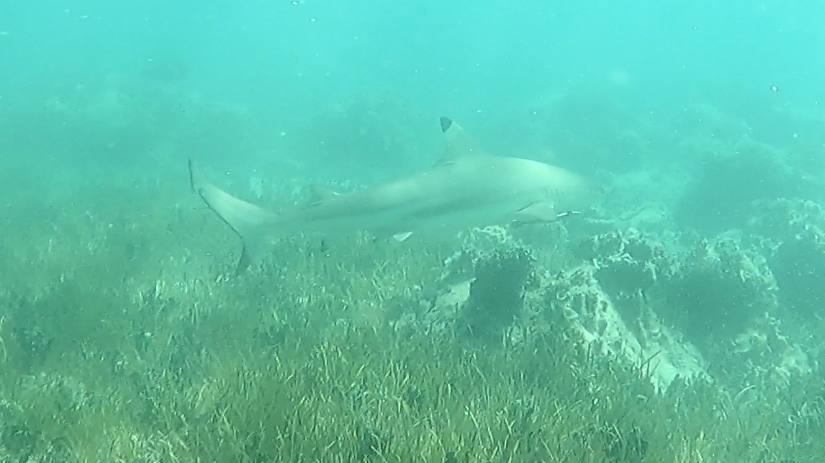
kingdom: Animalia
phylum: Chordata
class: Elasmobranchii
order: Carcharhiniformes
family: Carcharhinidae
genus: Carcharhinus
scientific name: Carcharhinus melanopterus
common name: Blacktip reef shark
